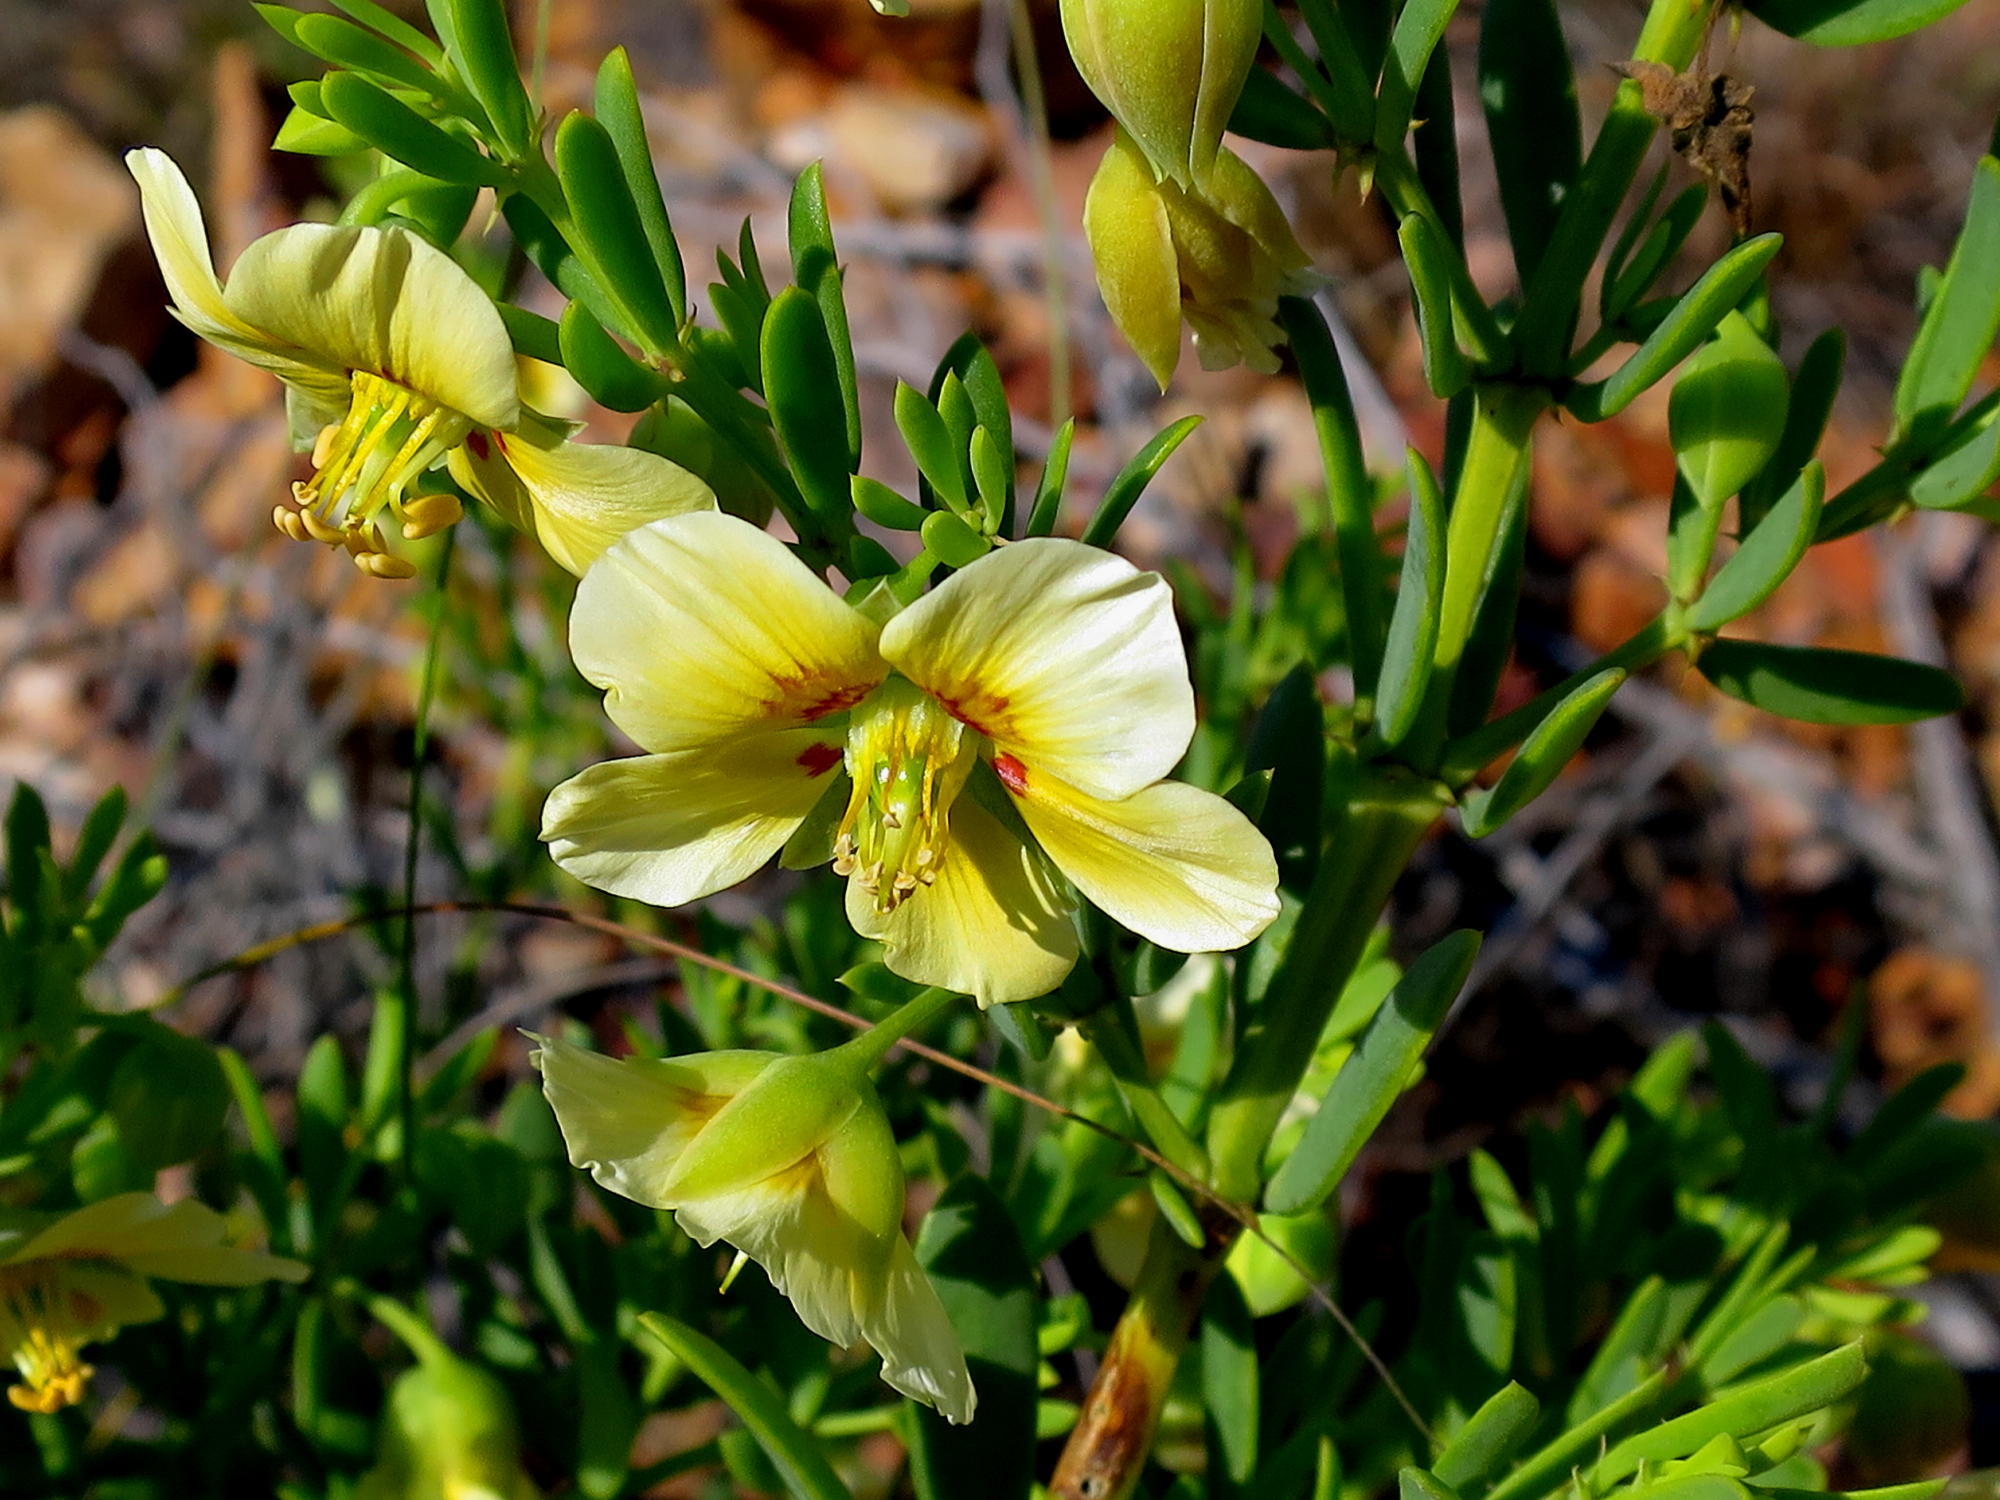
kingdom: Plantae
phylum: Tracheophyta
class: Magnoliopsida
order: Zygophyllales
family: Zygophyllaceae
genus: Roepera
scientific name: Roepera fulva
